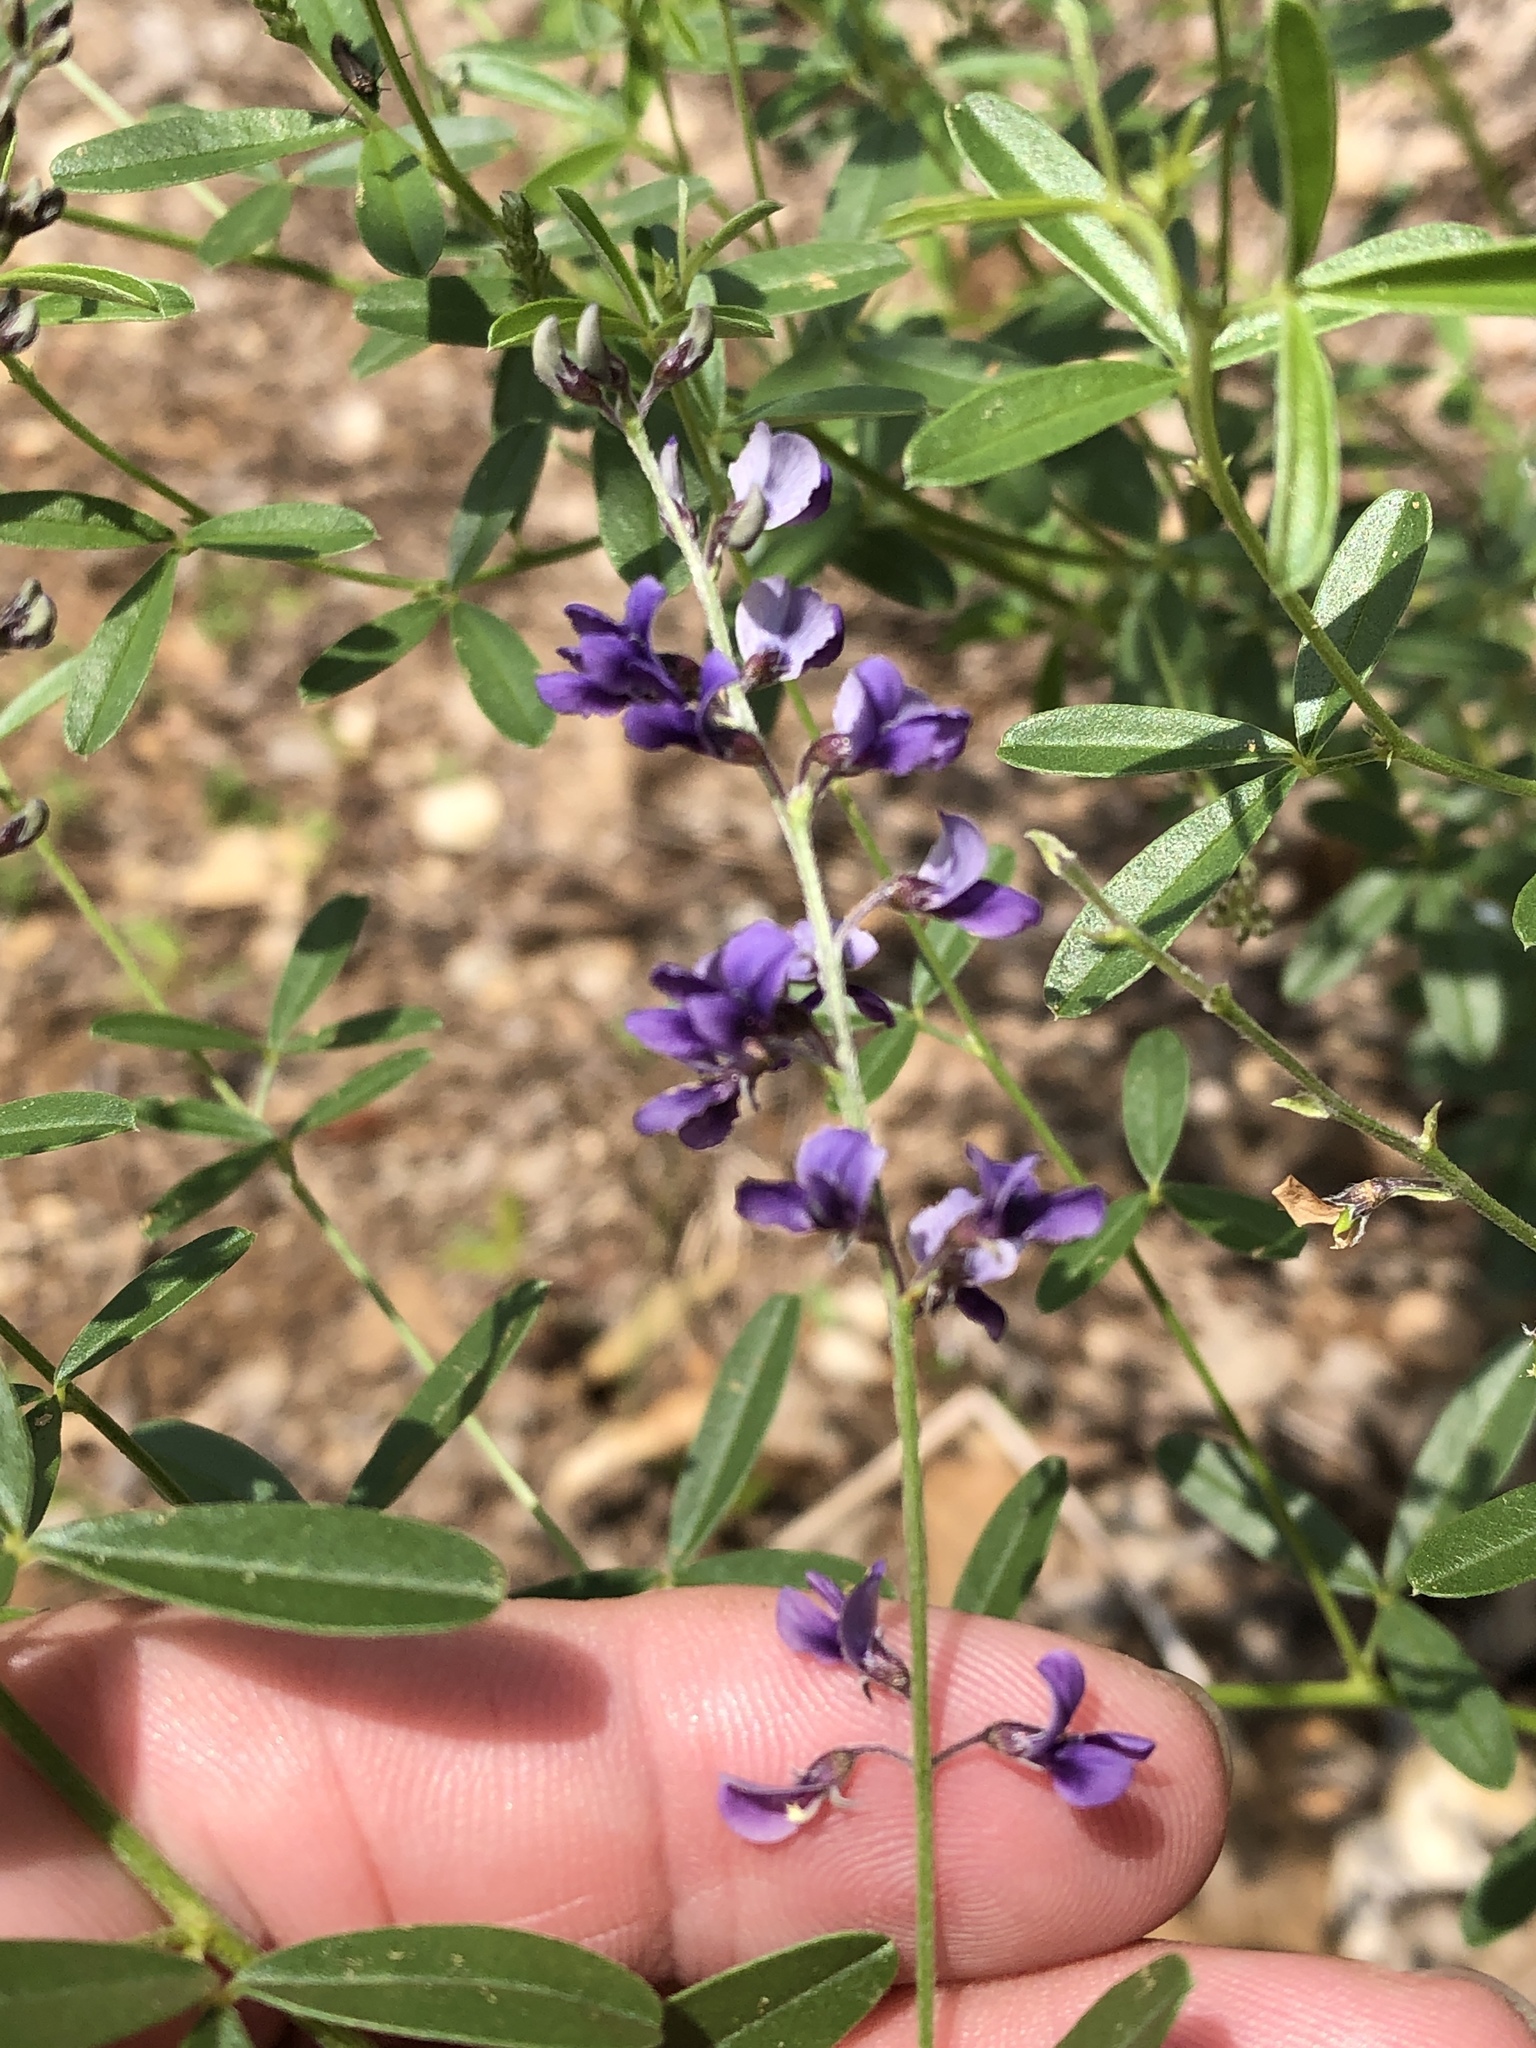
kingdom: Plantae
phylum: Tracheophyta
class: Magnoliopsida
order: Fabales
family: Fabaceae
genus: Pediomelum
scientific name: Pediomelum tenuiflorum
